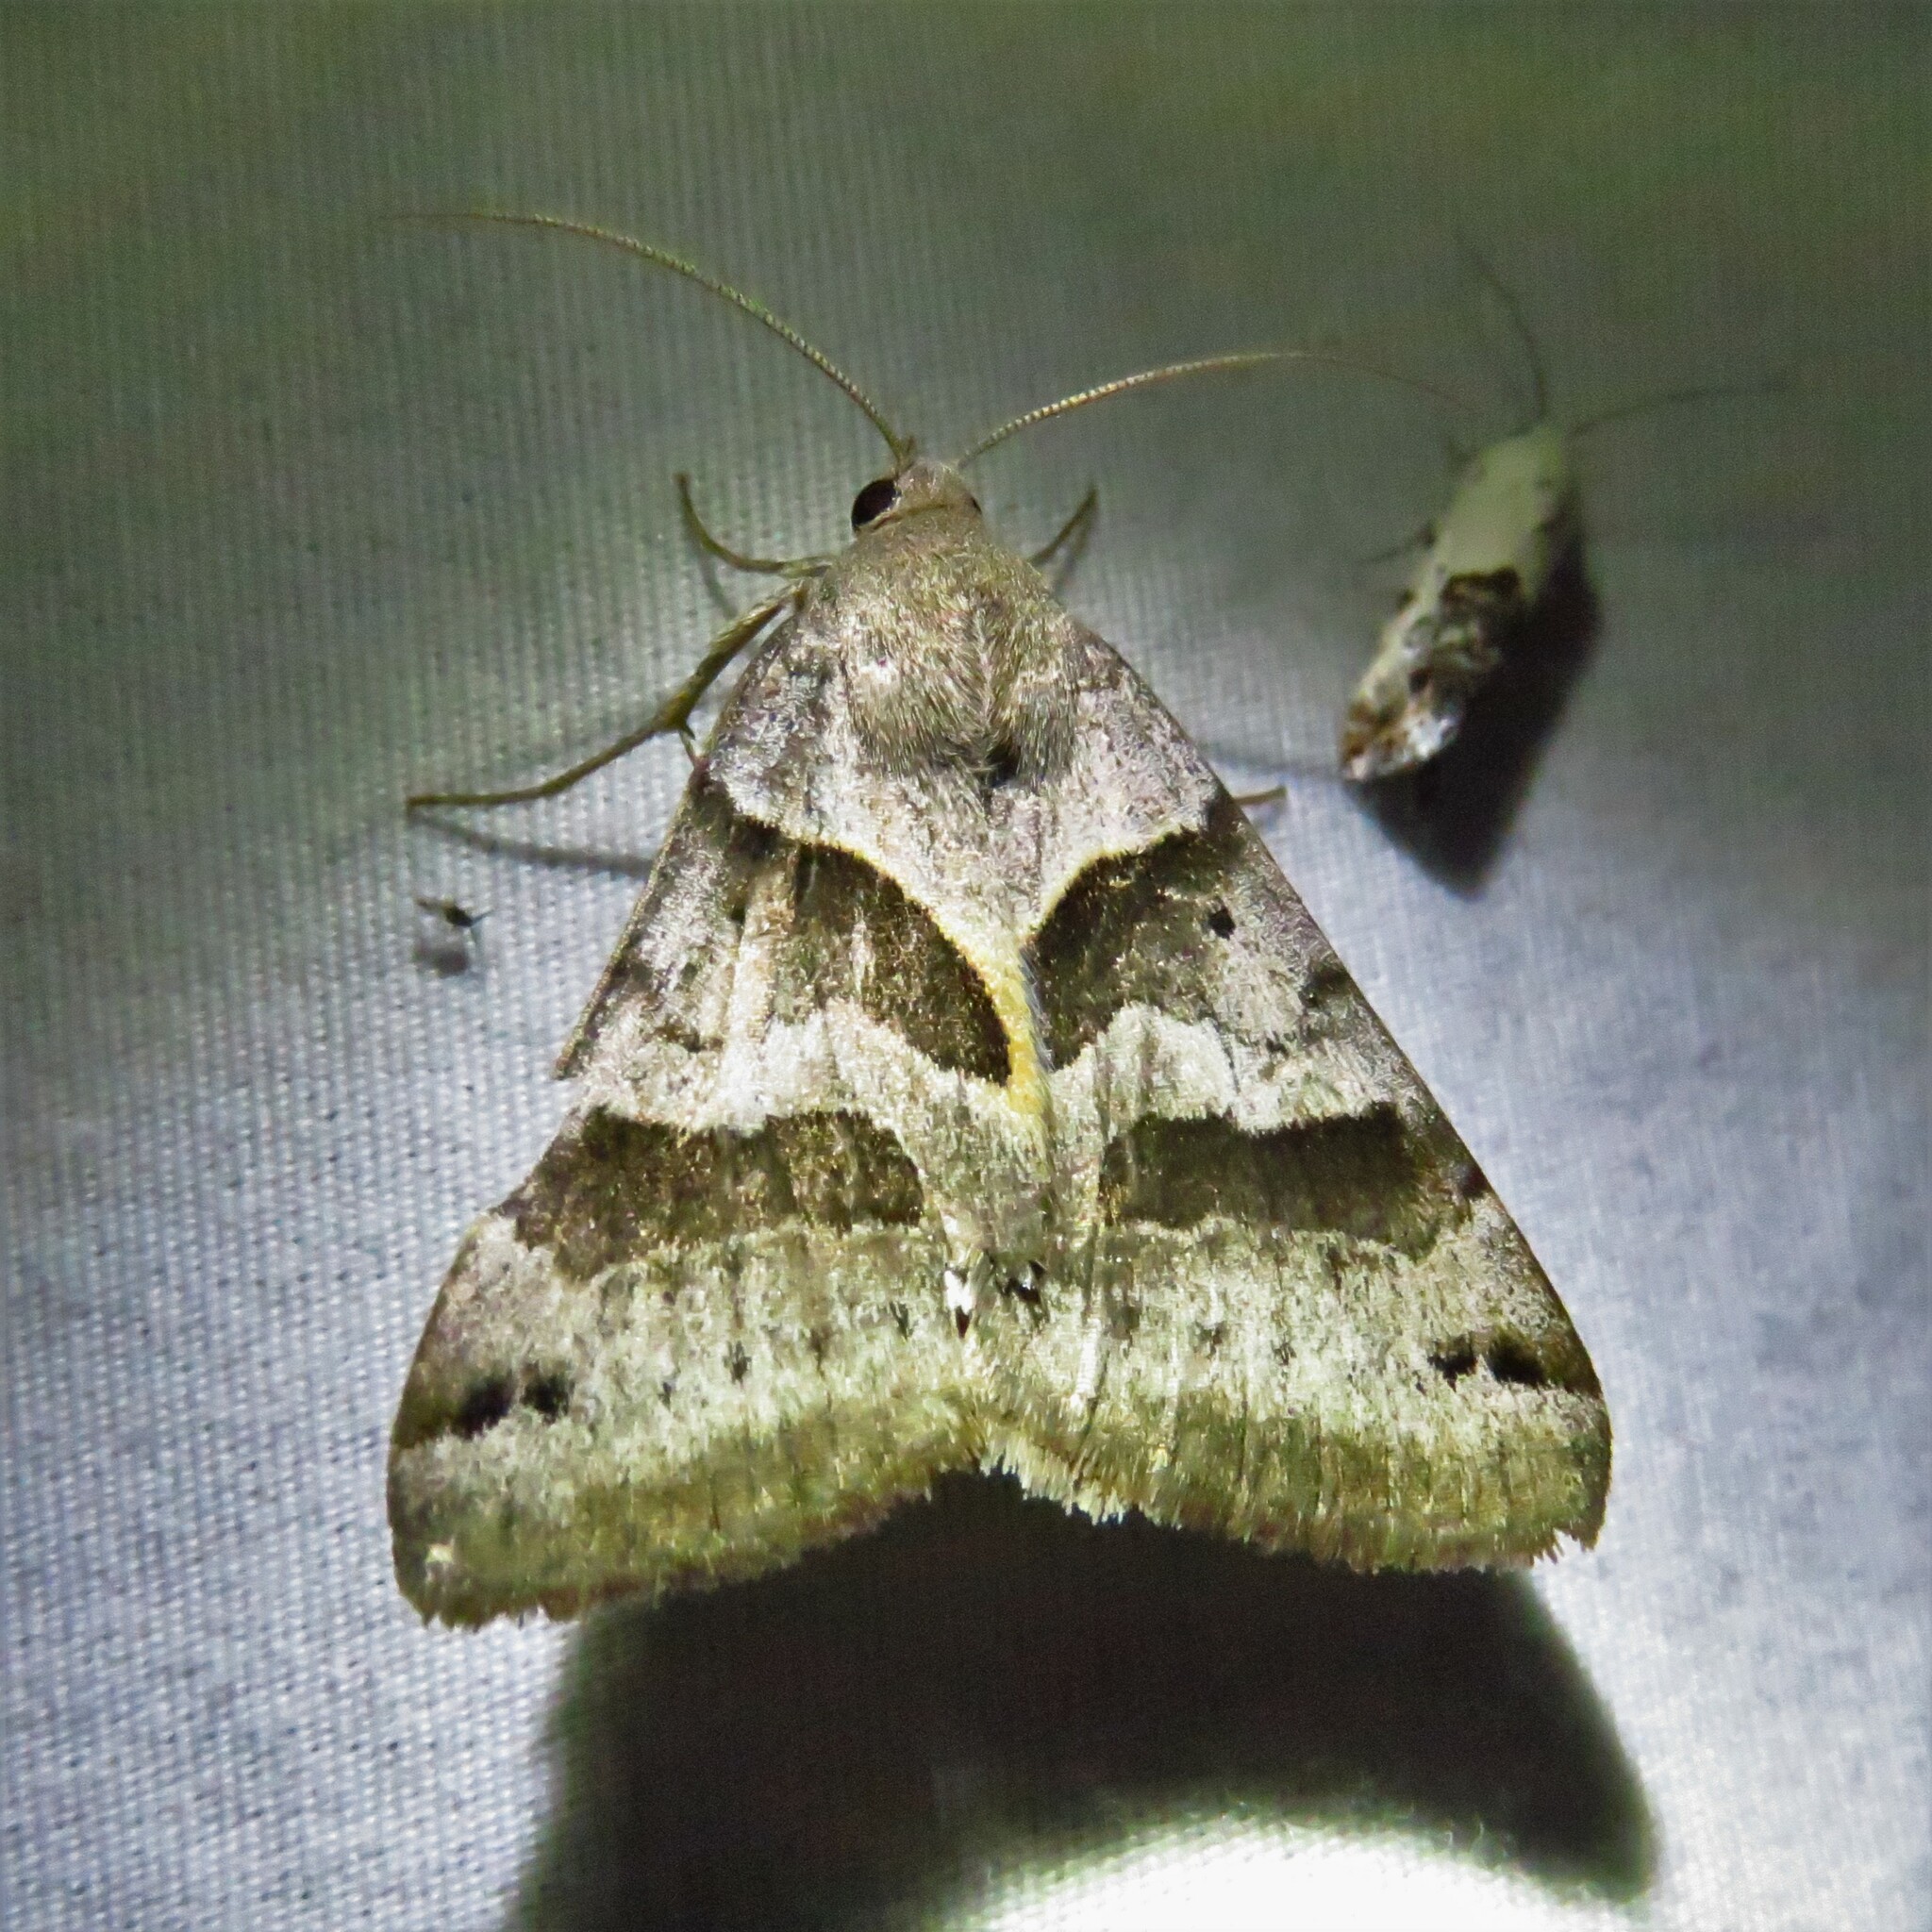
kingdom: Animalia
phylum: Arthropoda
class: Insecta
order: Lepidoptera
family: Erebidae
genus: Caenurgina
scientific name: Caenurgina erechtea
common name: Forage looper moth
